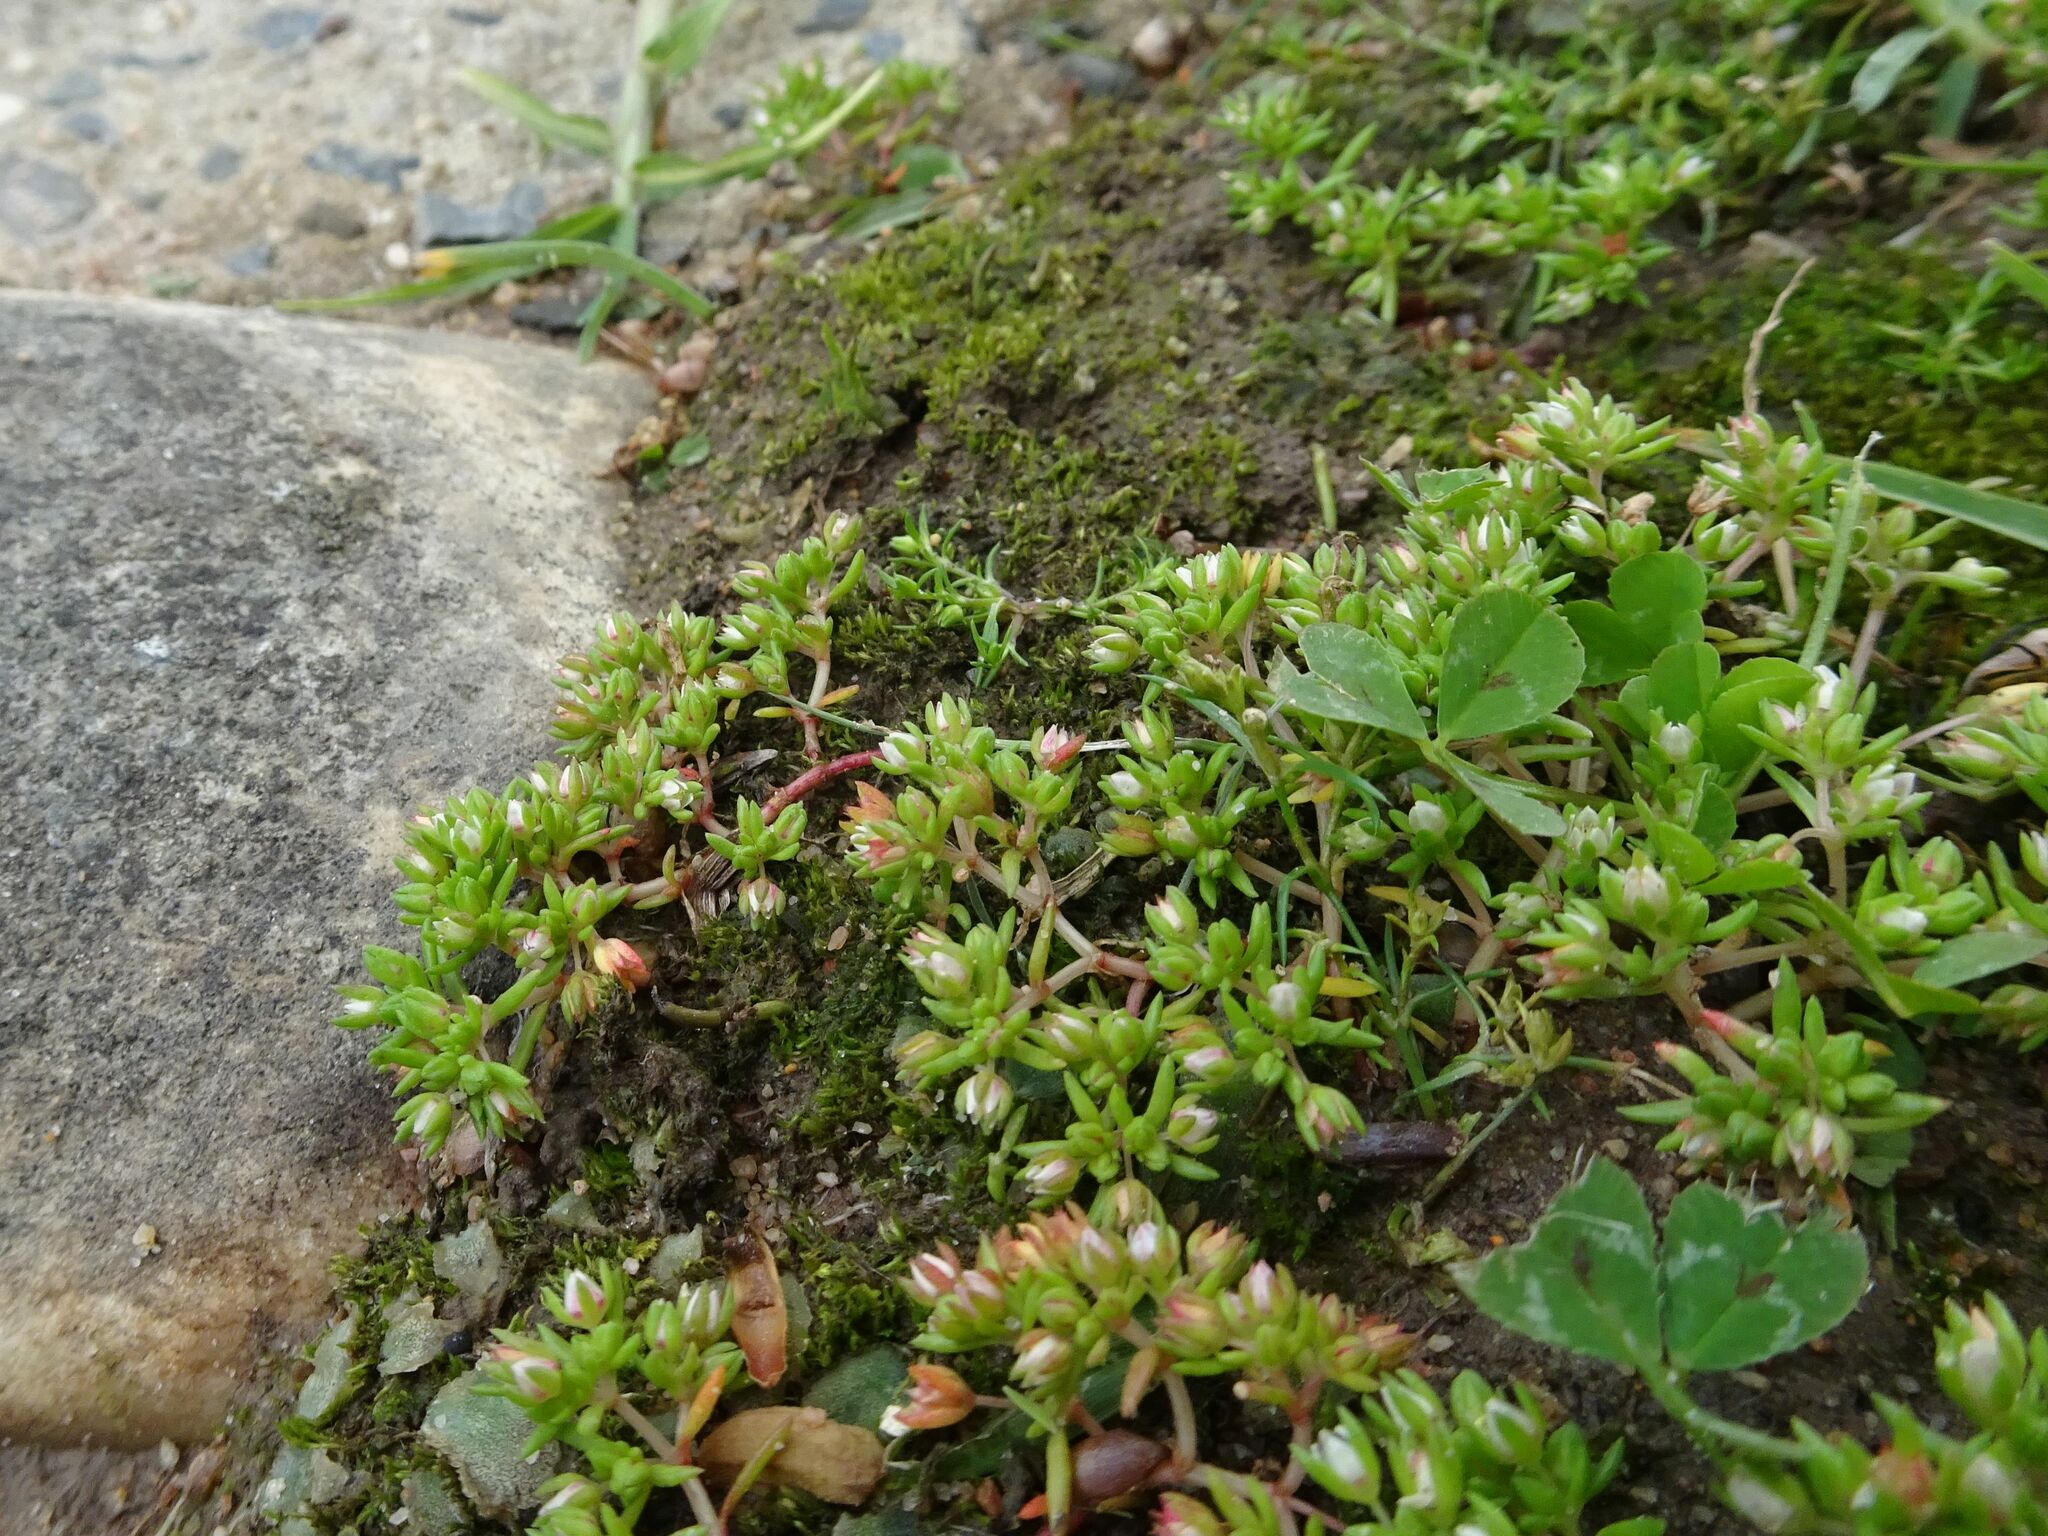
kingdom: Plantae
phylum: Tracheophyta
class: Magnoliopsida
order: Saxifragales
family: Crassulaceae
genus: Crassula
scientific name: Crassula decumbens
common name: Scilly pigmyweed
